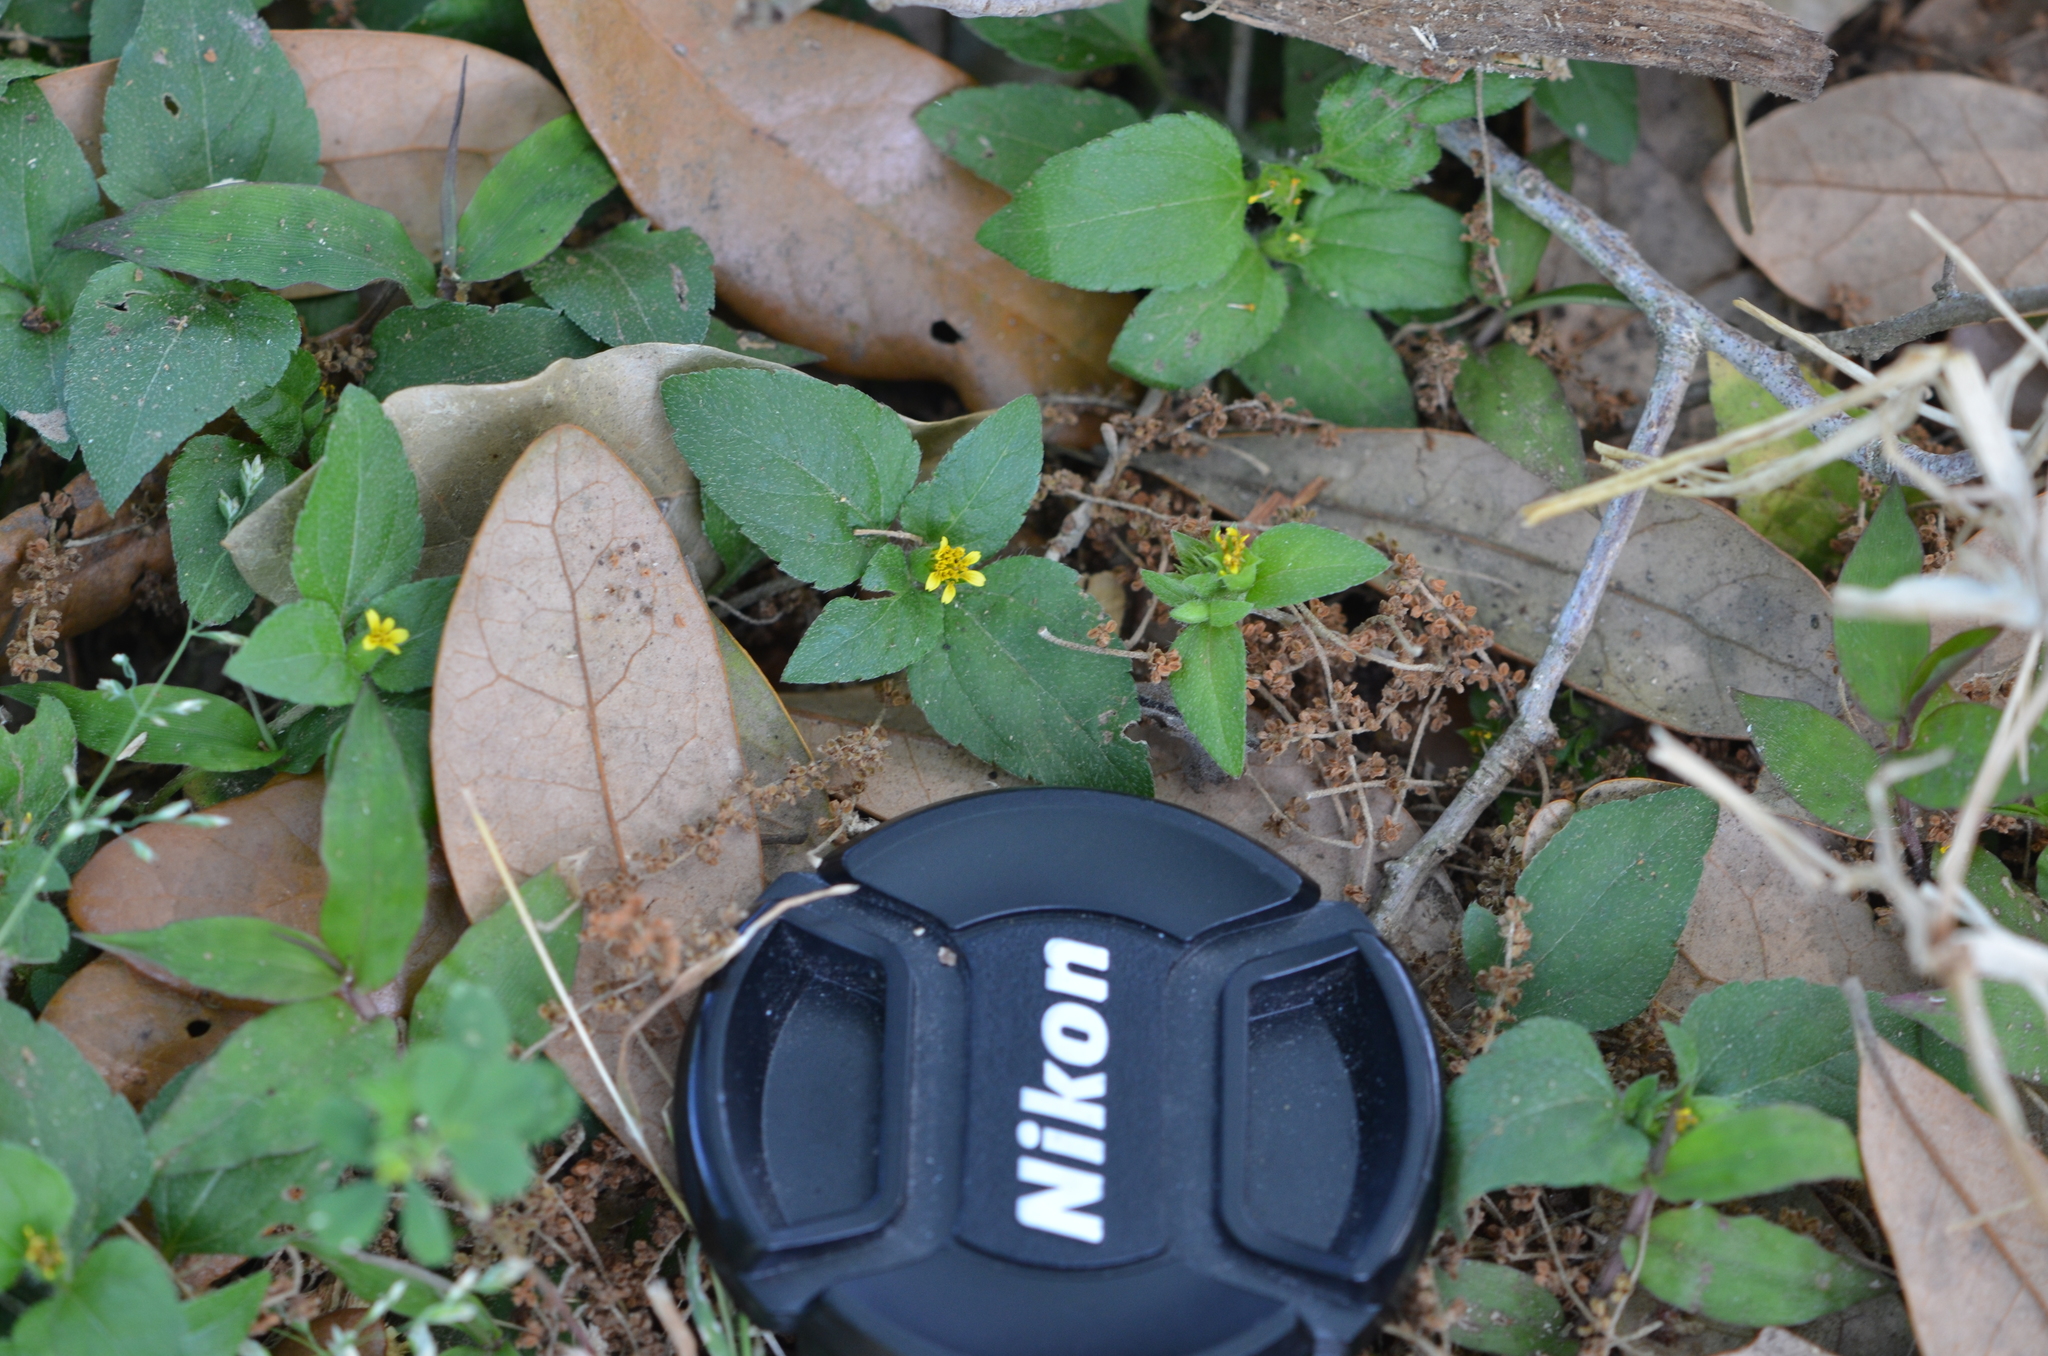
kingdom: Plantae
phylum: Tracheophyta
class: Magnoliopsida
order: Asterales
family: Asteraceae
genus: Calyptocarpus
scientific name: Calyptocarpus vialis
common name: Straggler daisy
